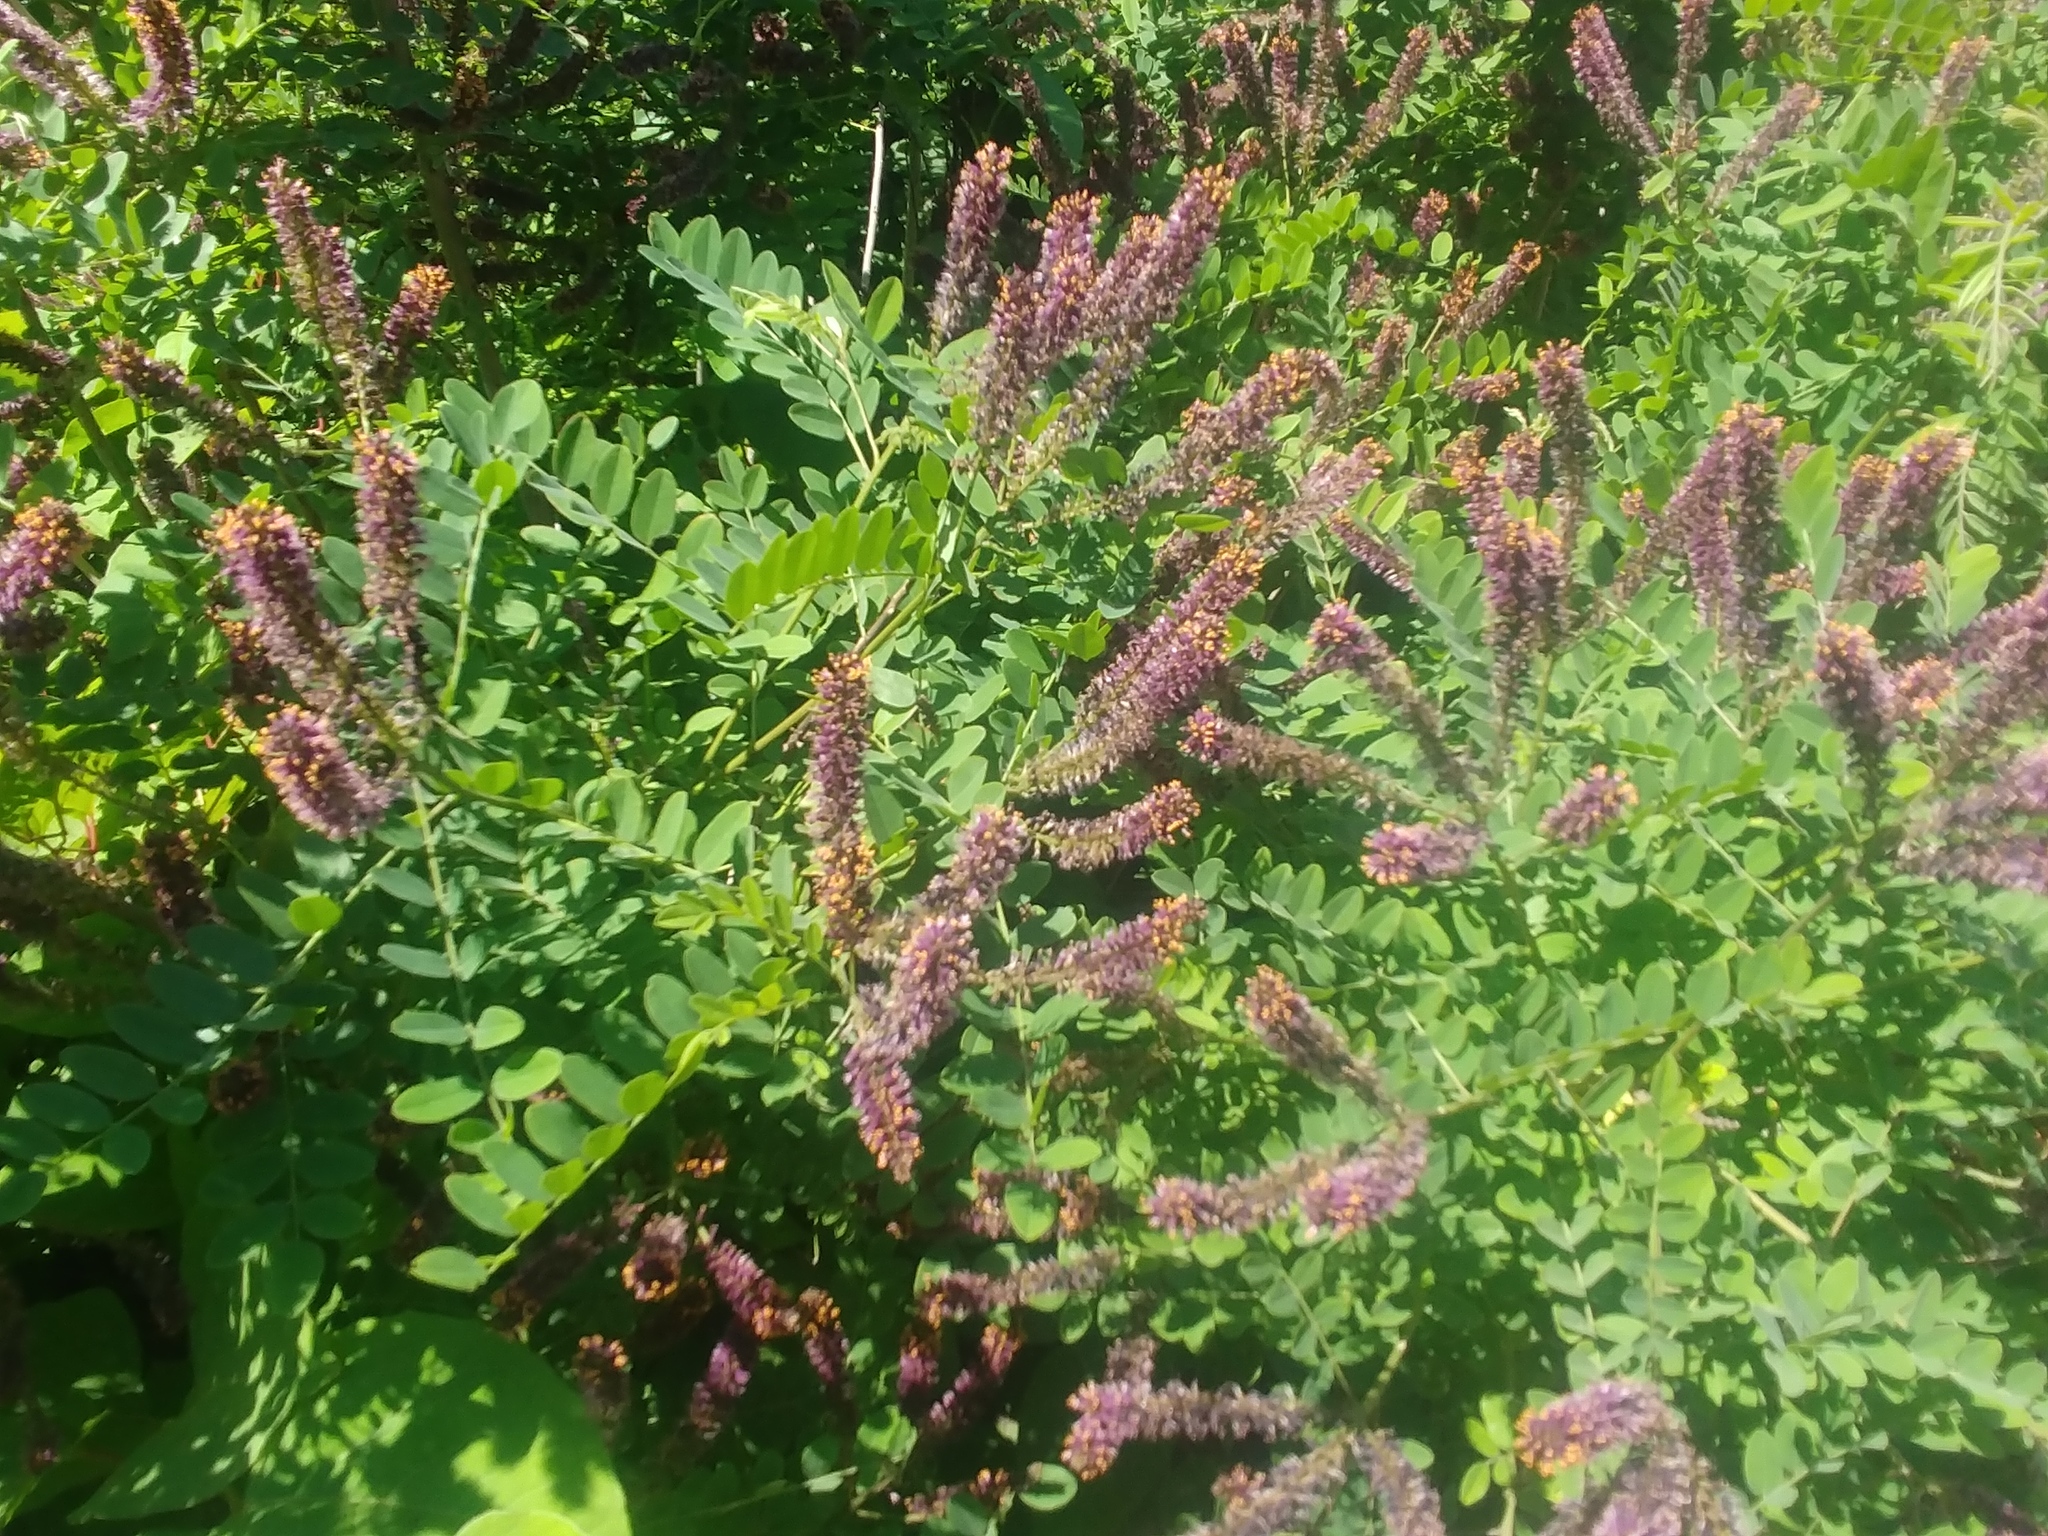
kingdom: Plantae
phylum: Tracheophyta
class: Magnoliopsida
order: Fabales
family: Fabaceae
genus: Amorpha
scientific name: Amorpha fruticosa
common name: False indigo
